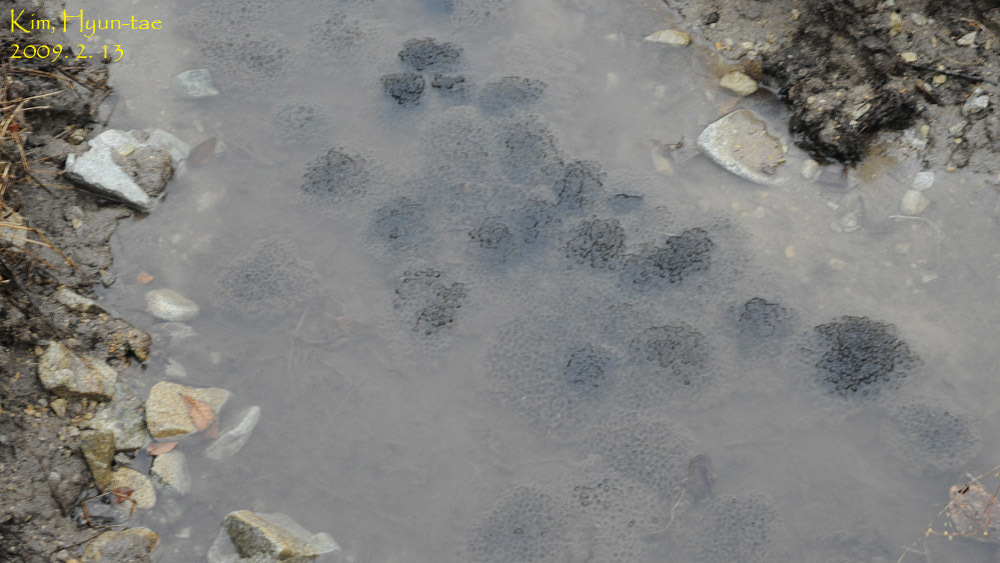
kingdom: Animalia
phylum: Chordata
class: Amphibia
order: Anura
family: Ranidae
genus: Rana
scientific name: Rana uenoi
